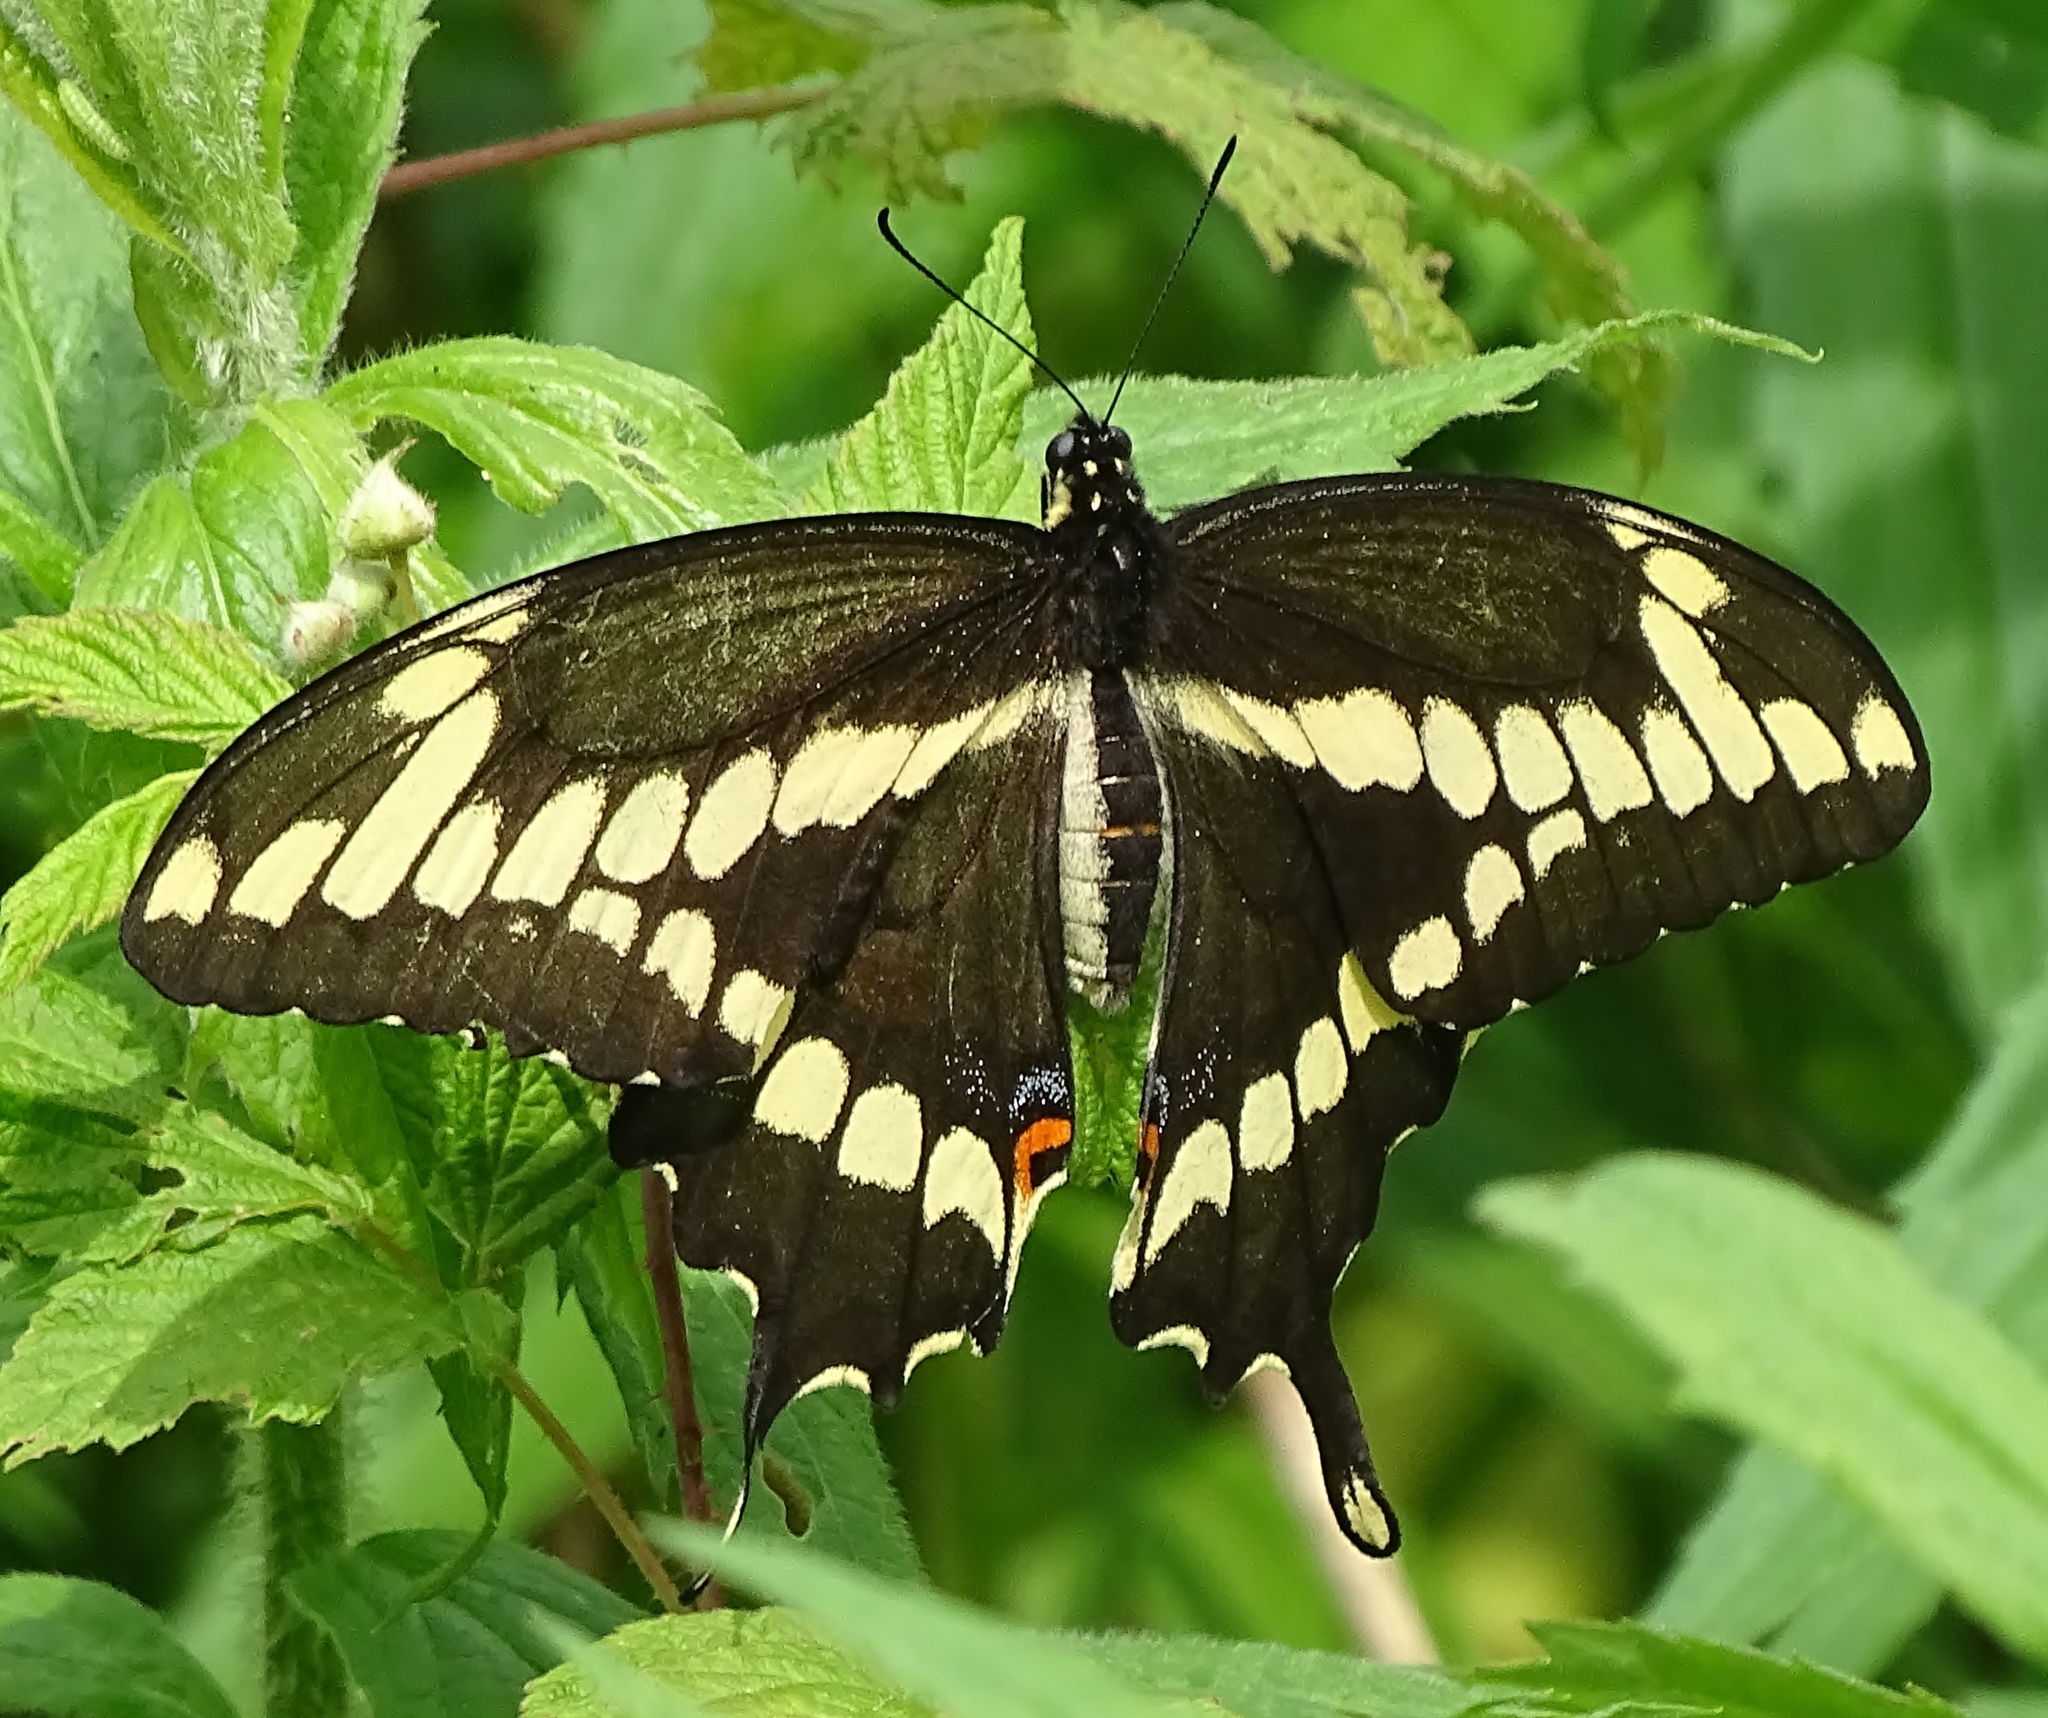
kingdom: Animalia
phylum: Arthropoda
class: Insecta
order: Lepidoptera
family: Papilionidae
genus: Papilio
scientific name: Papilio cresphontes
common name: Giant swallowtail
